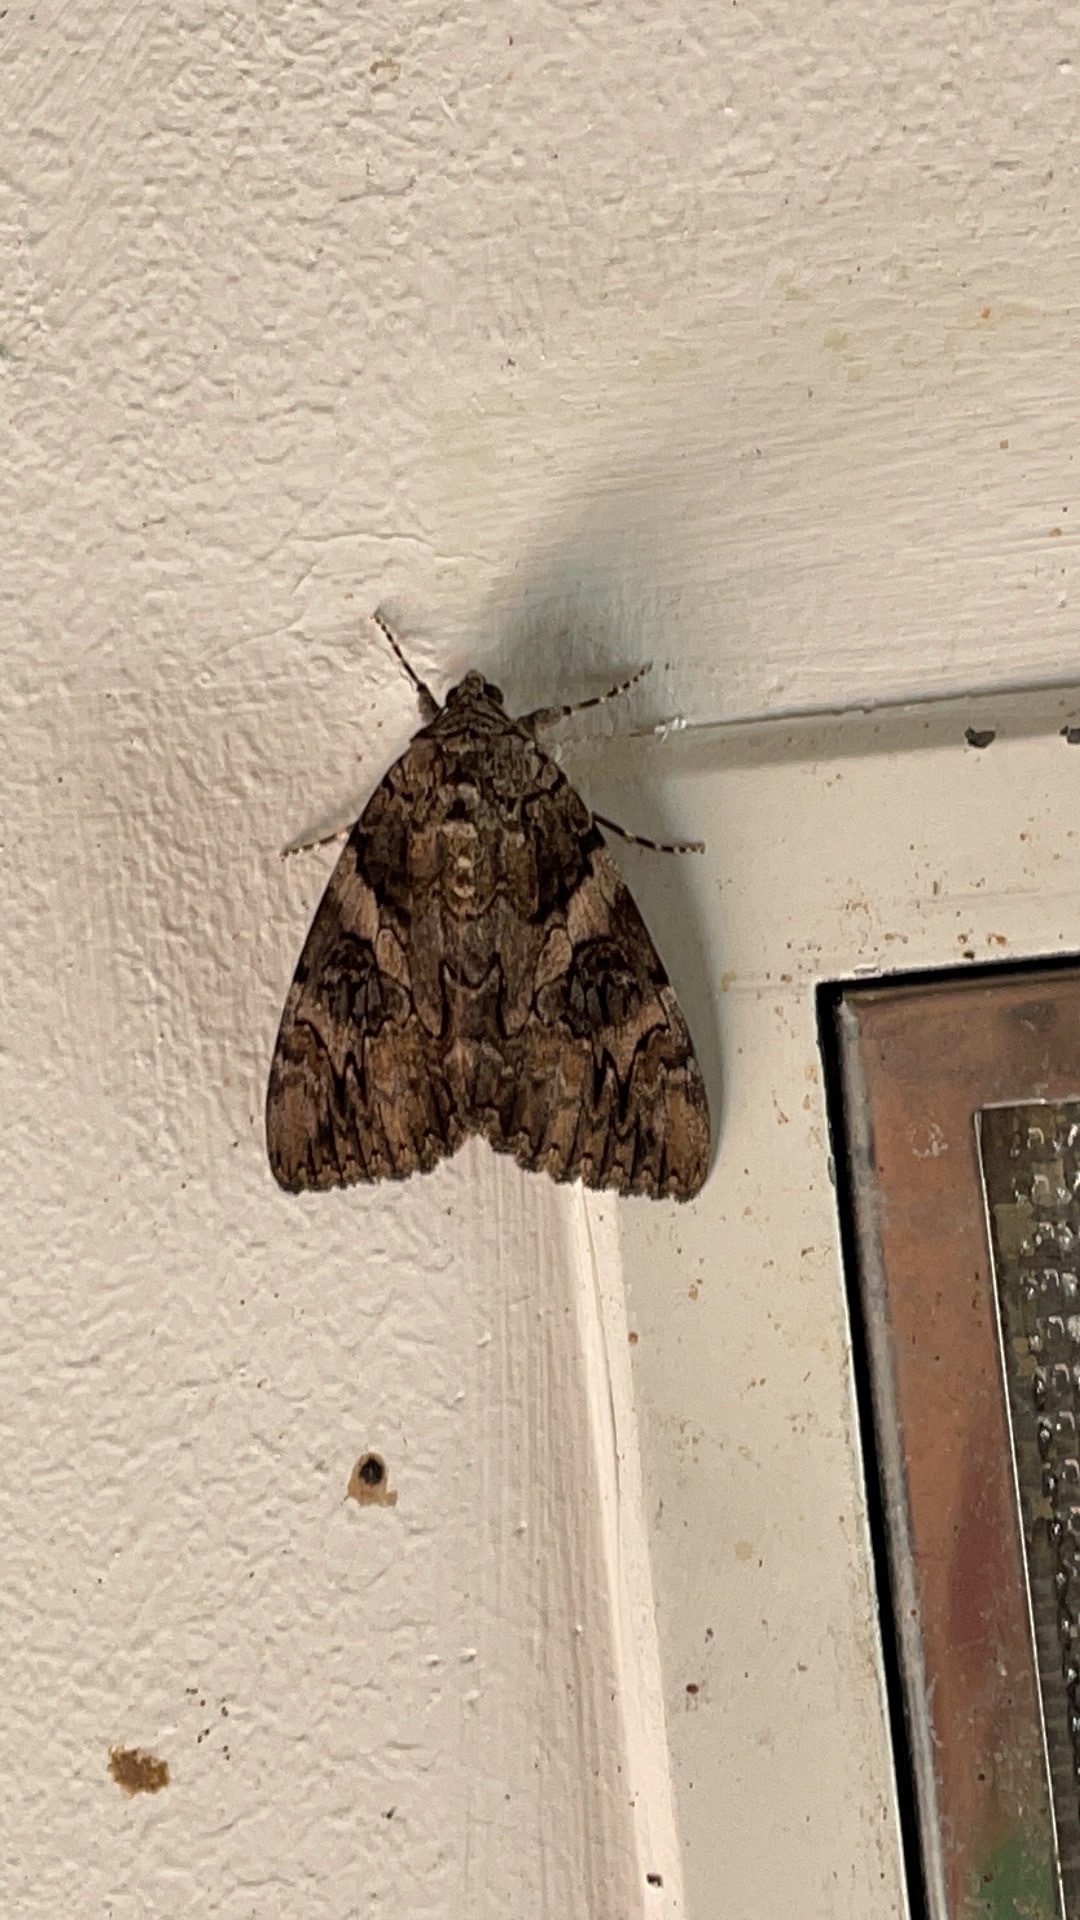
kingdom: Animalia
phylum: Arthropoda
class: Insecta
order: Lepidoptera
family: Erebidae
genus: Catocala
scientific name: Catocala piatrix
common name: The penitent underwing
